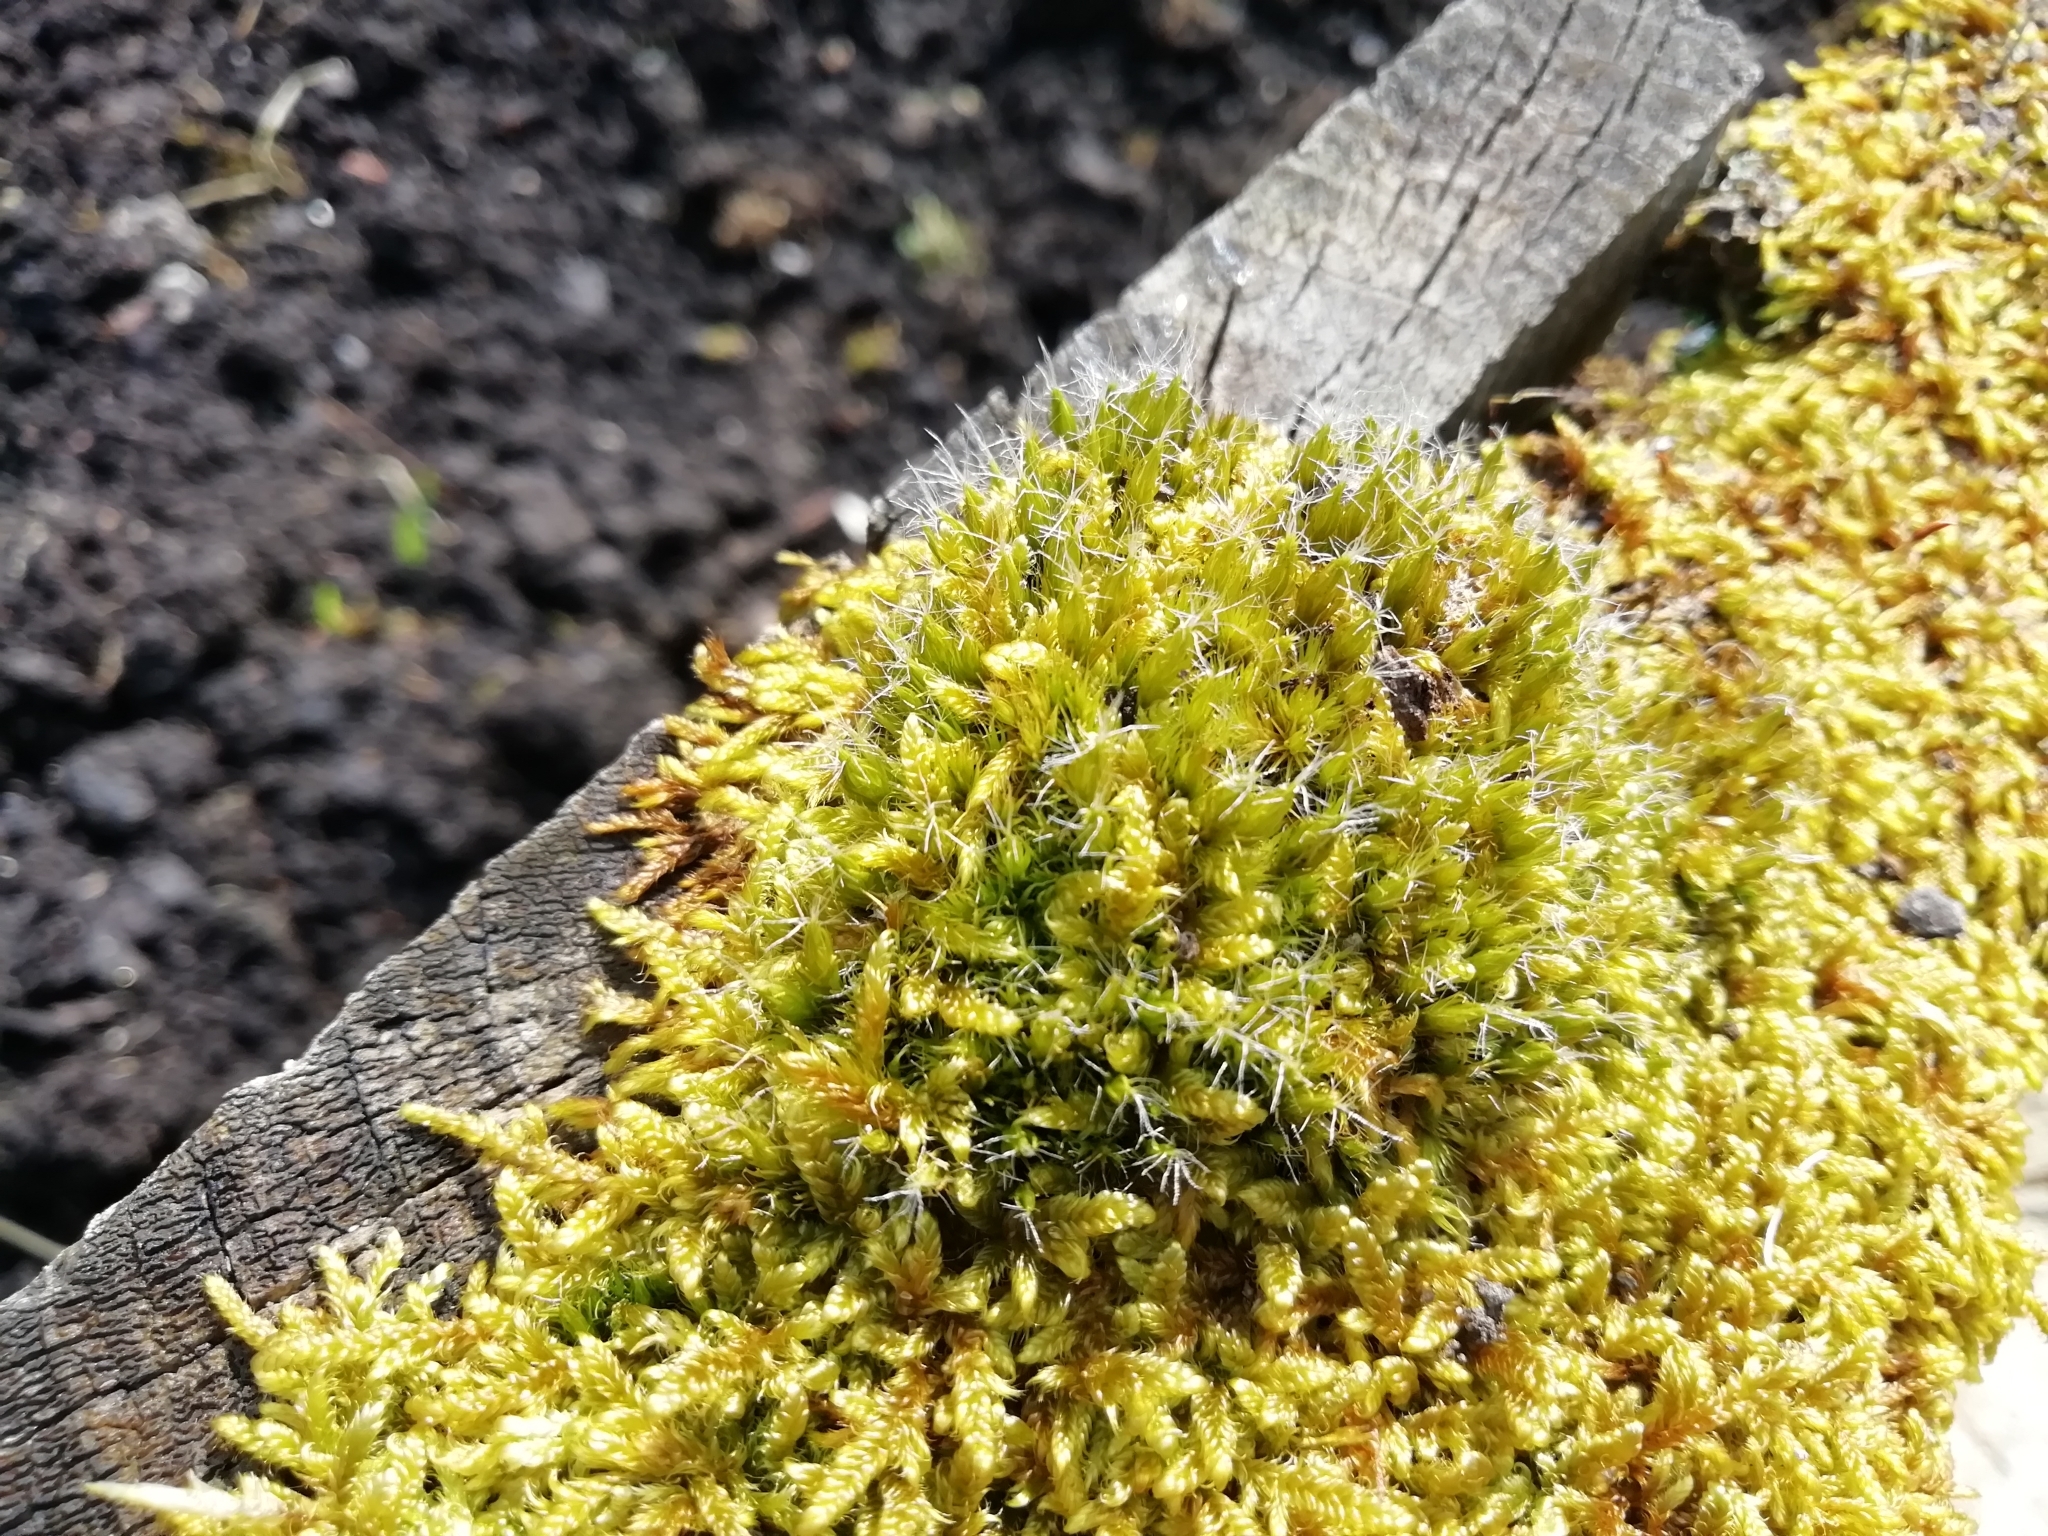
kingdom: Plantae
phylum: Bryophyta
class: Bryopsida
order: Dicranales
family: Leucobryaceae
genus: Campylopus
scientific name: Campylopus introflexus
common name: Heath star moss
